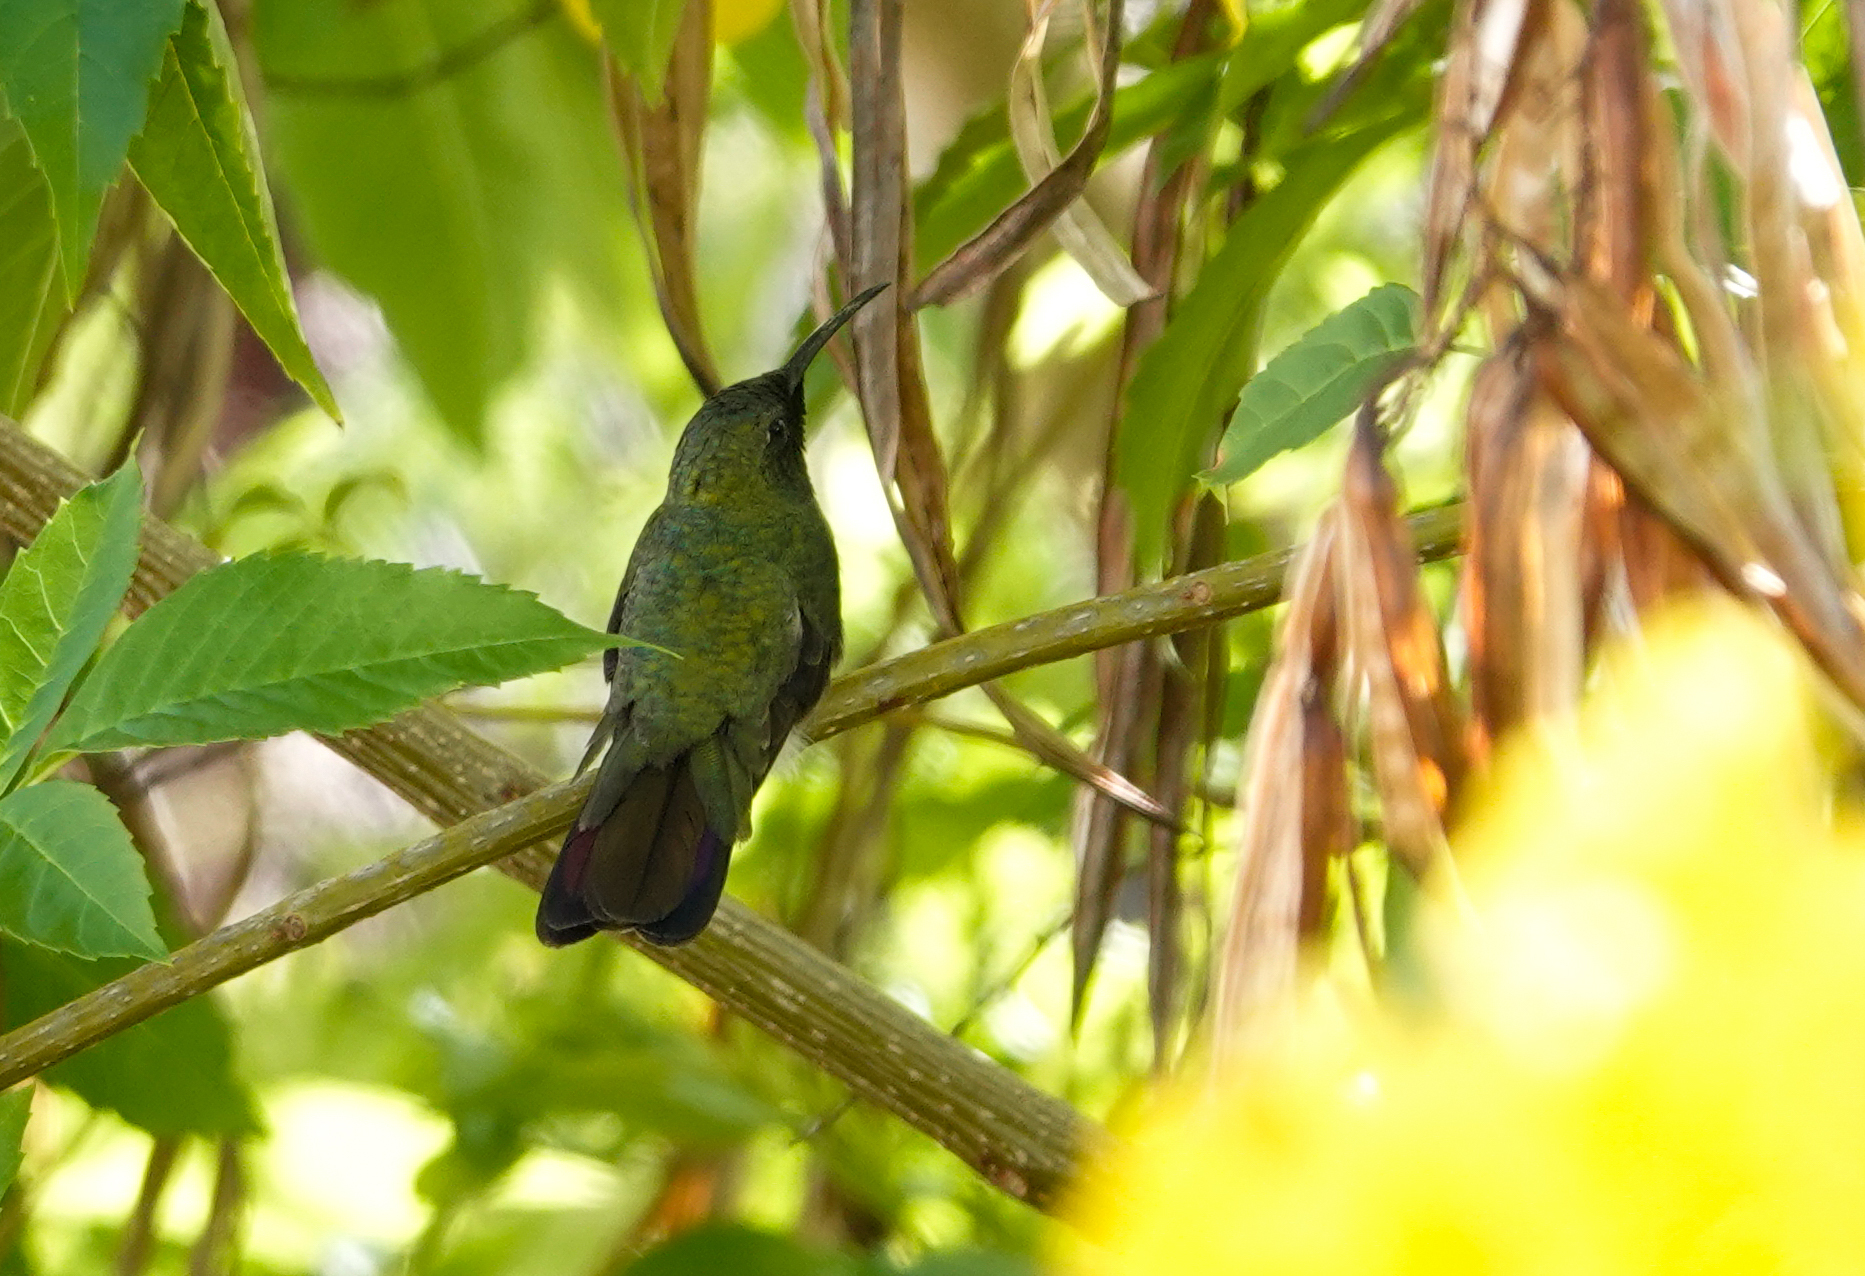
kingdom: Animalia
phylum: Chordata
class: Aves
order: Apodiformes
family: Trochilidae
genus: Anthracothorax
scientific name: Anthracothorax dominicus
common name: Antillean mango
